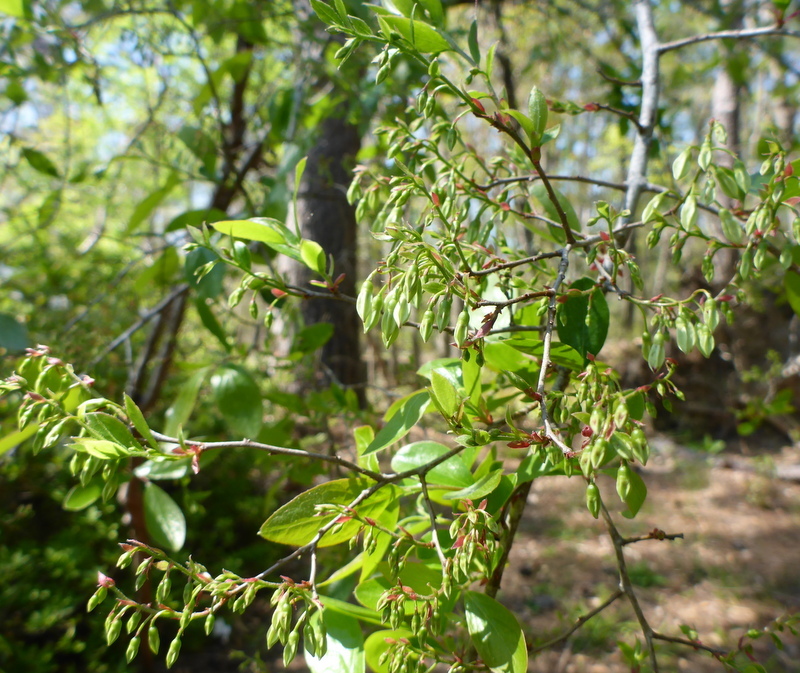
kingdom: Plantae
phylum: Tracheophyta
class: Magnoliopsida
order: Ericales
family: Ericaceae
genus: Vaccinium
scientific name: Vaccinium arboreum
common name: Farkleberry
